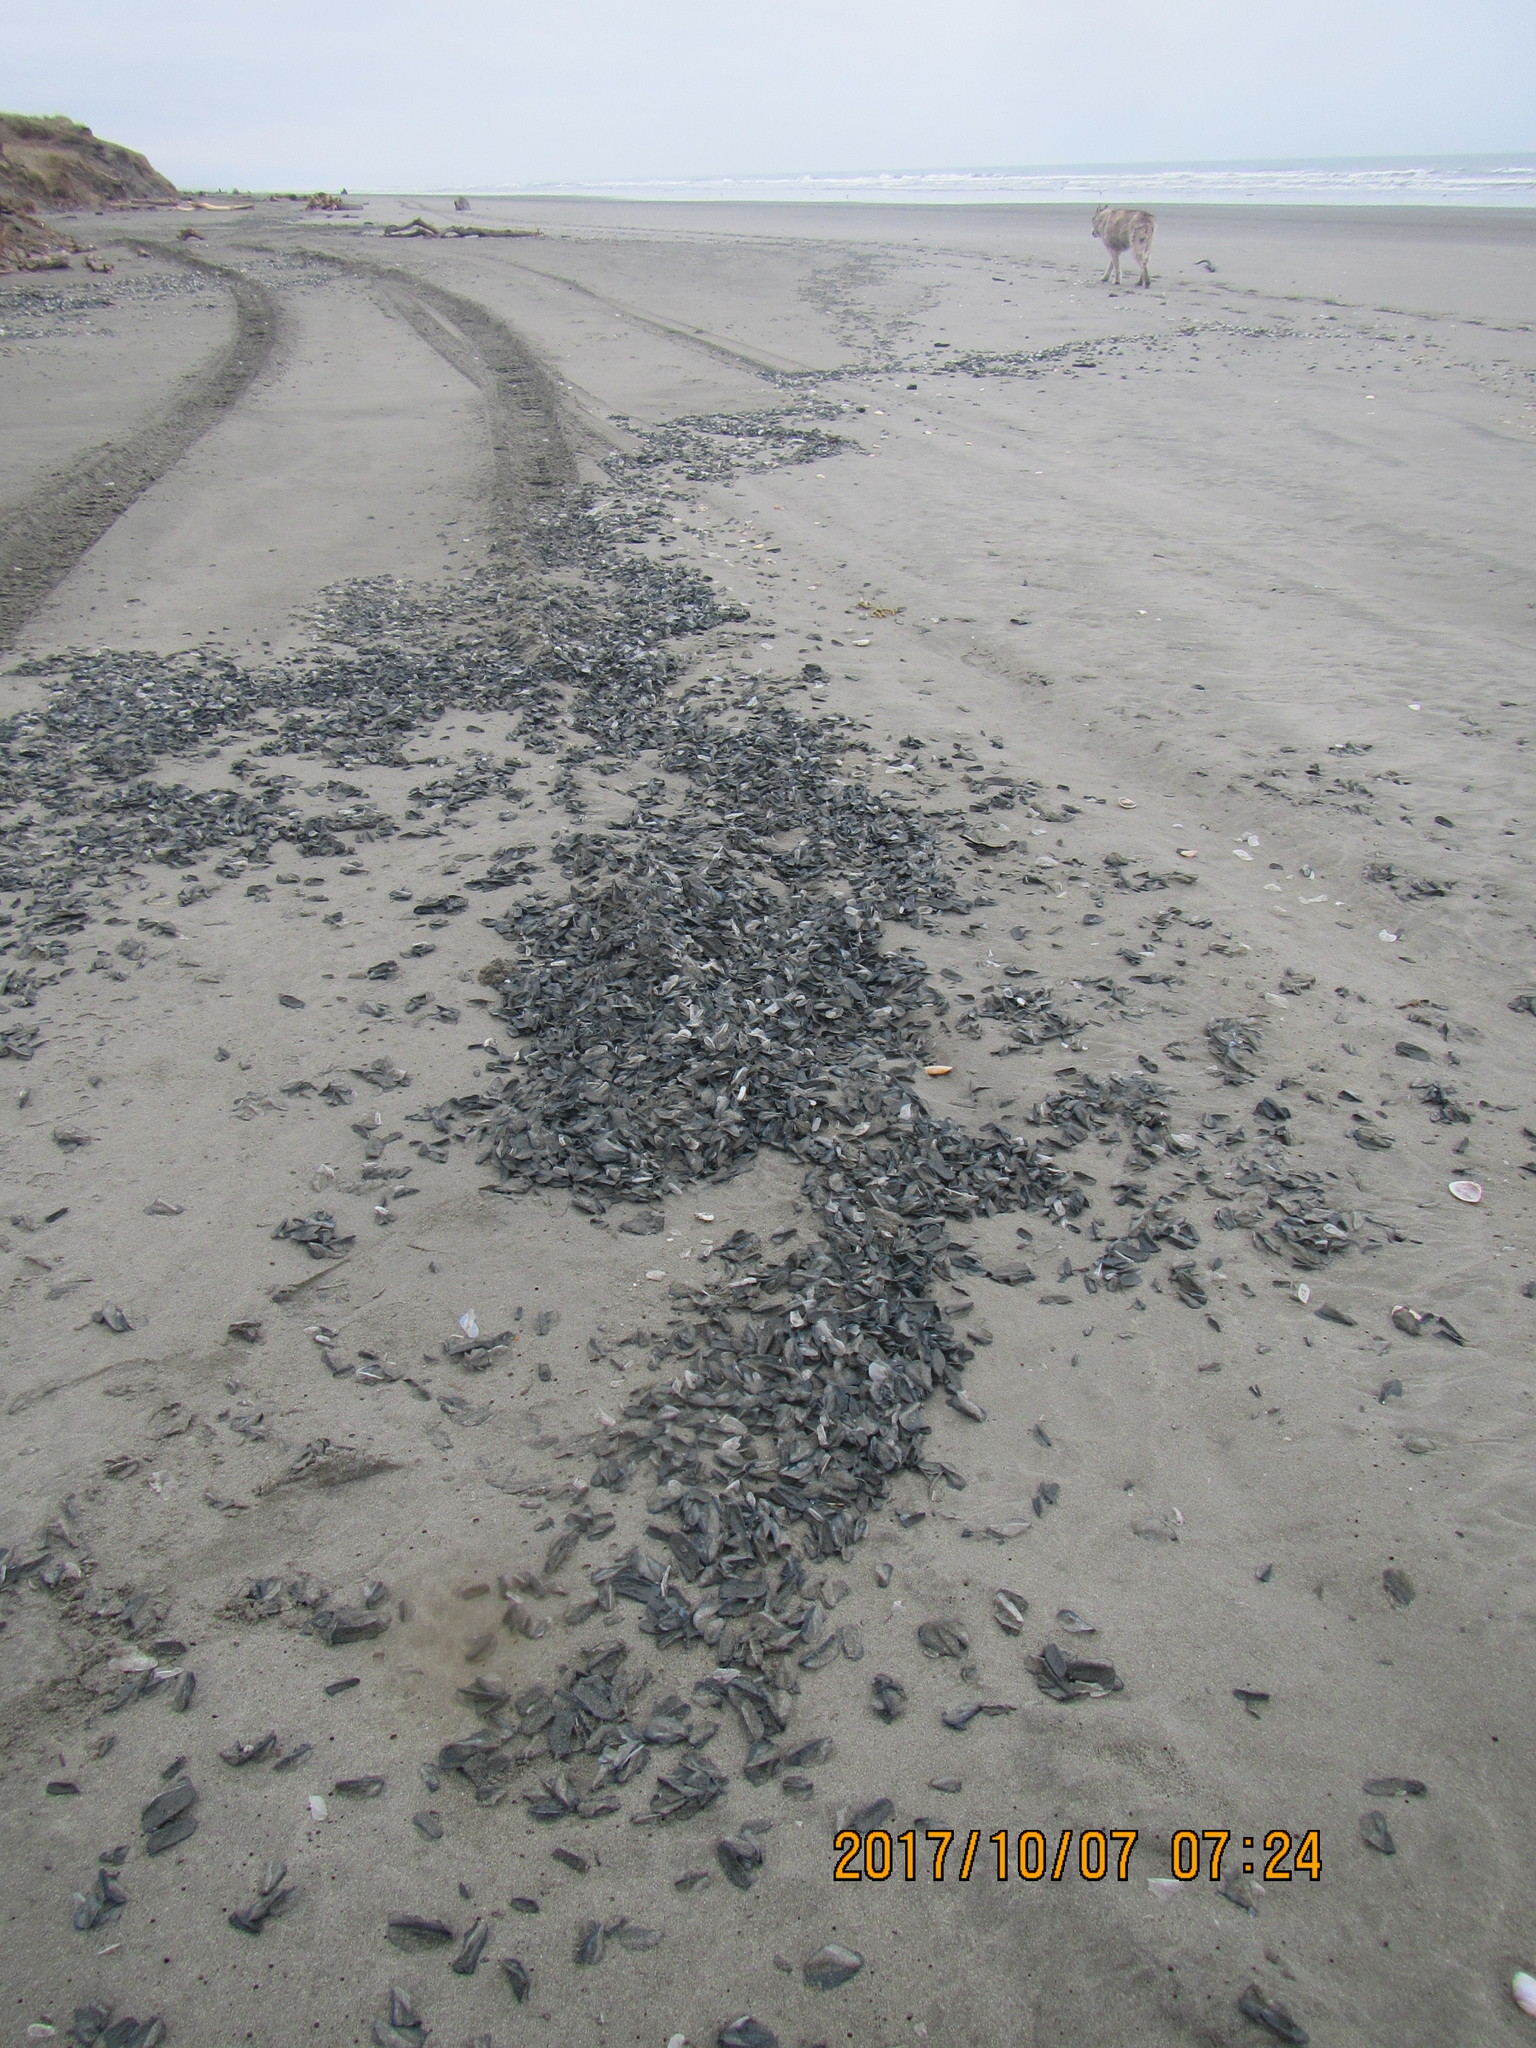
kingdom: Animalia
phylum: Mollusca
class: Cephalopoda
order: Spirulida
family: Spirulidae
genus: Spirula
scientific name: Spirula spirula
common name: Ram's horn squid
